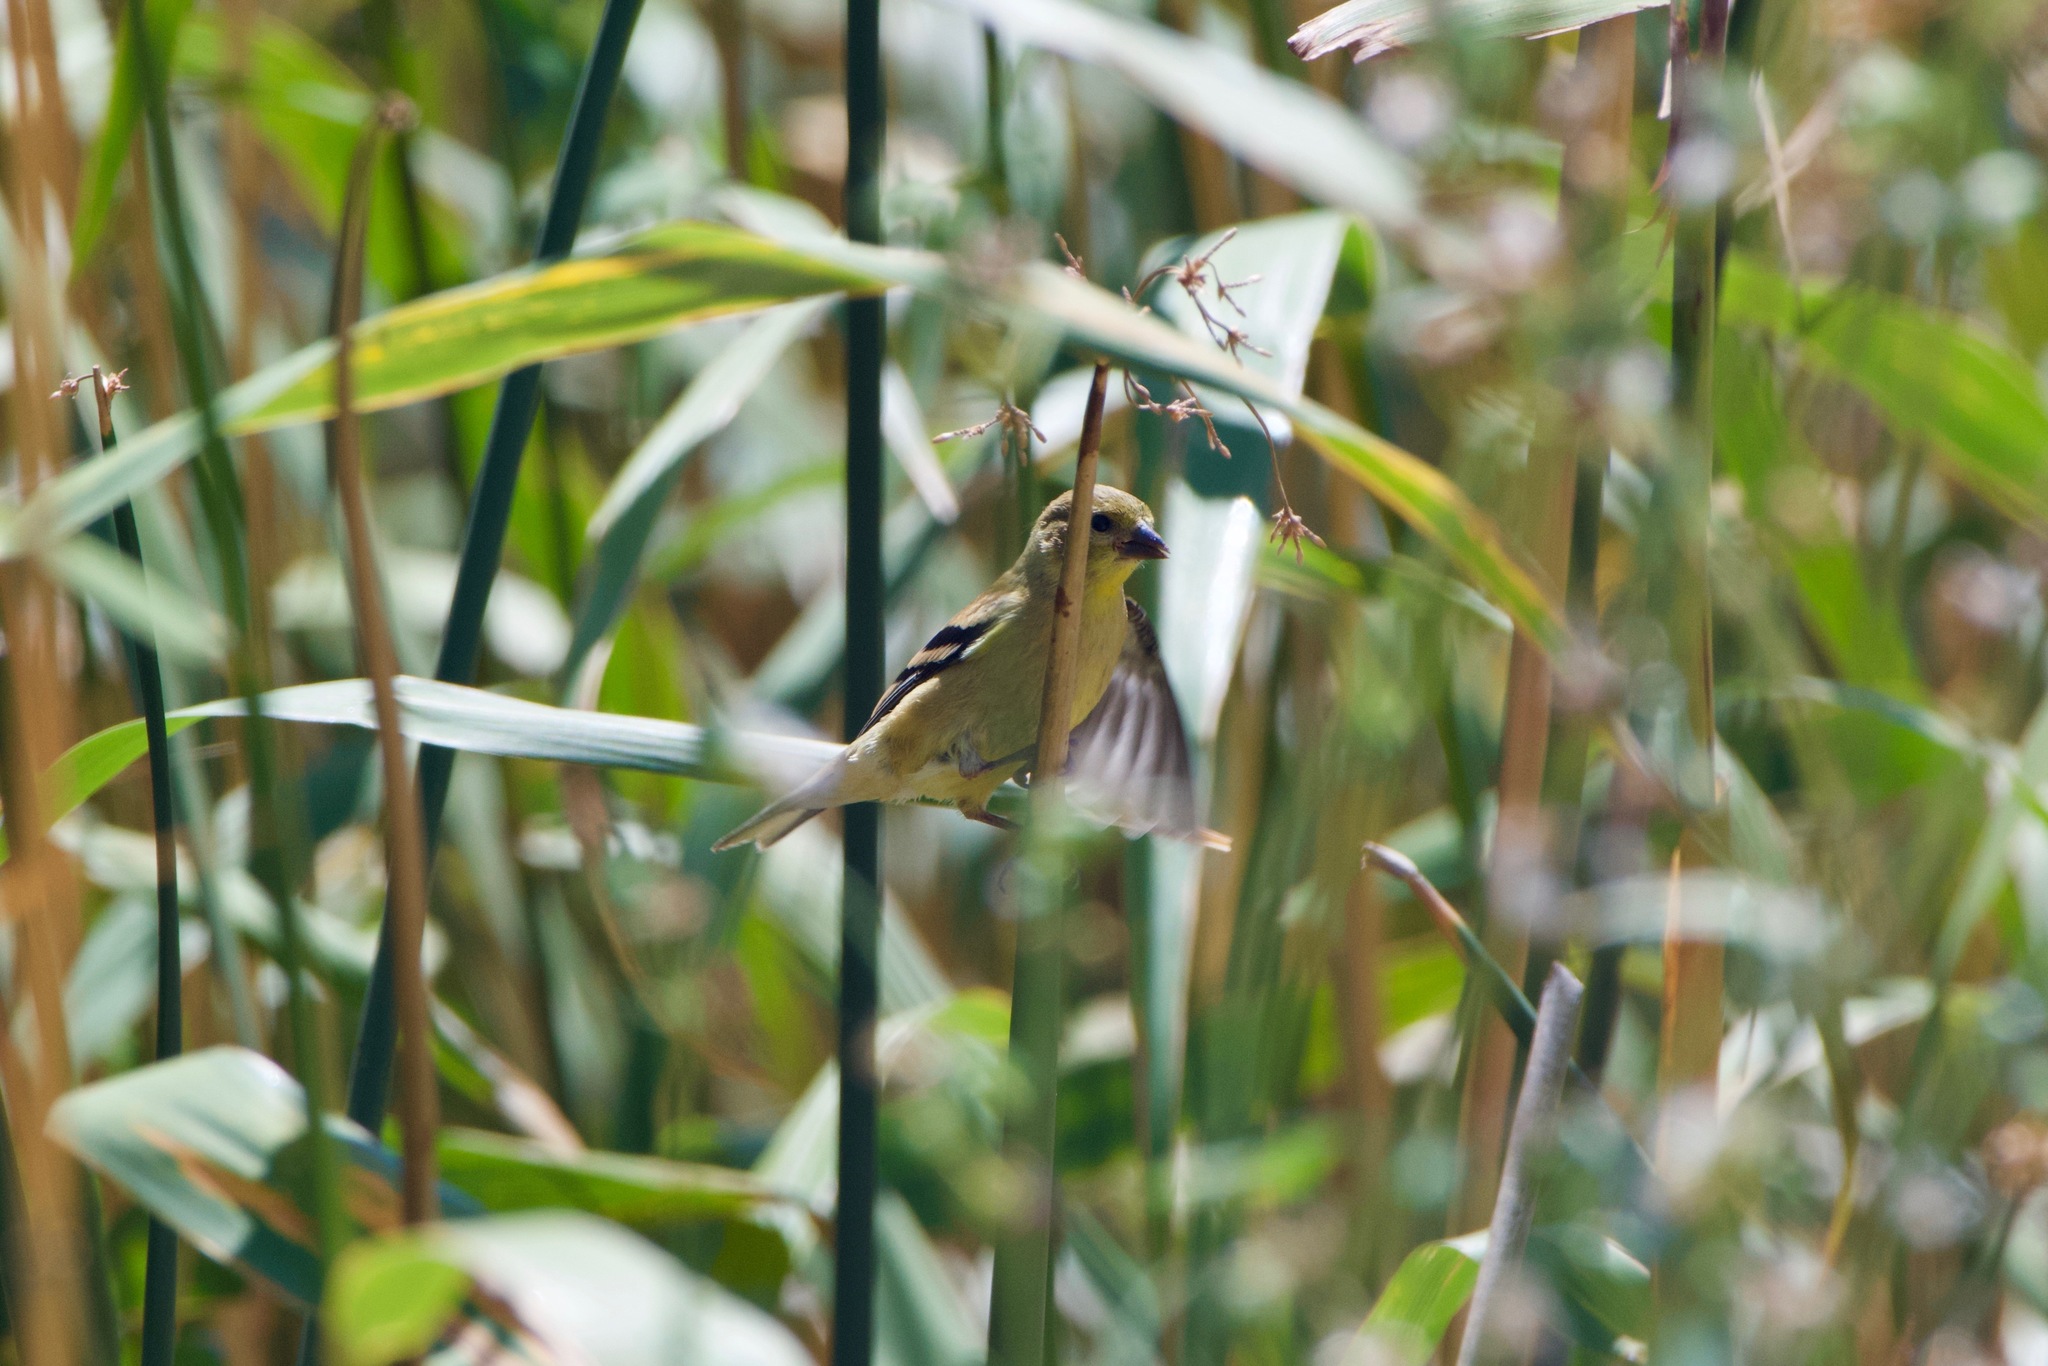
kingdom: Animalia
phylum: Chordata
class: Aves
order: Passeriformes
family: Fringillidae
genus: Spinus
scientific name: Spinus tristis
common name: American goldfinch
